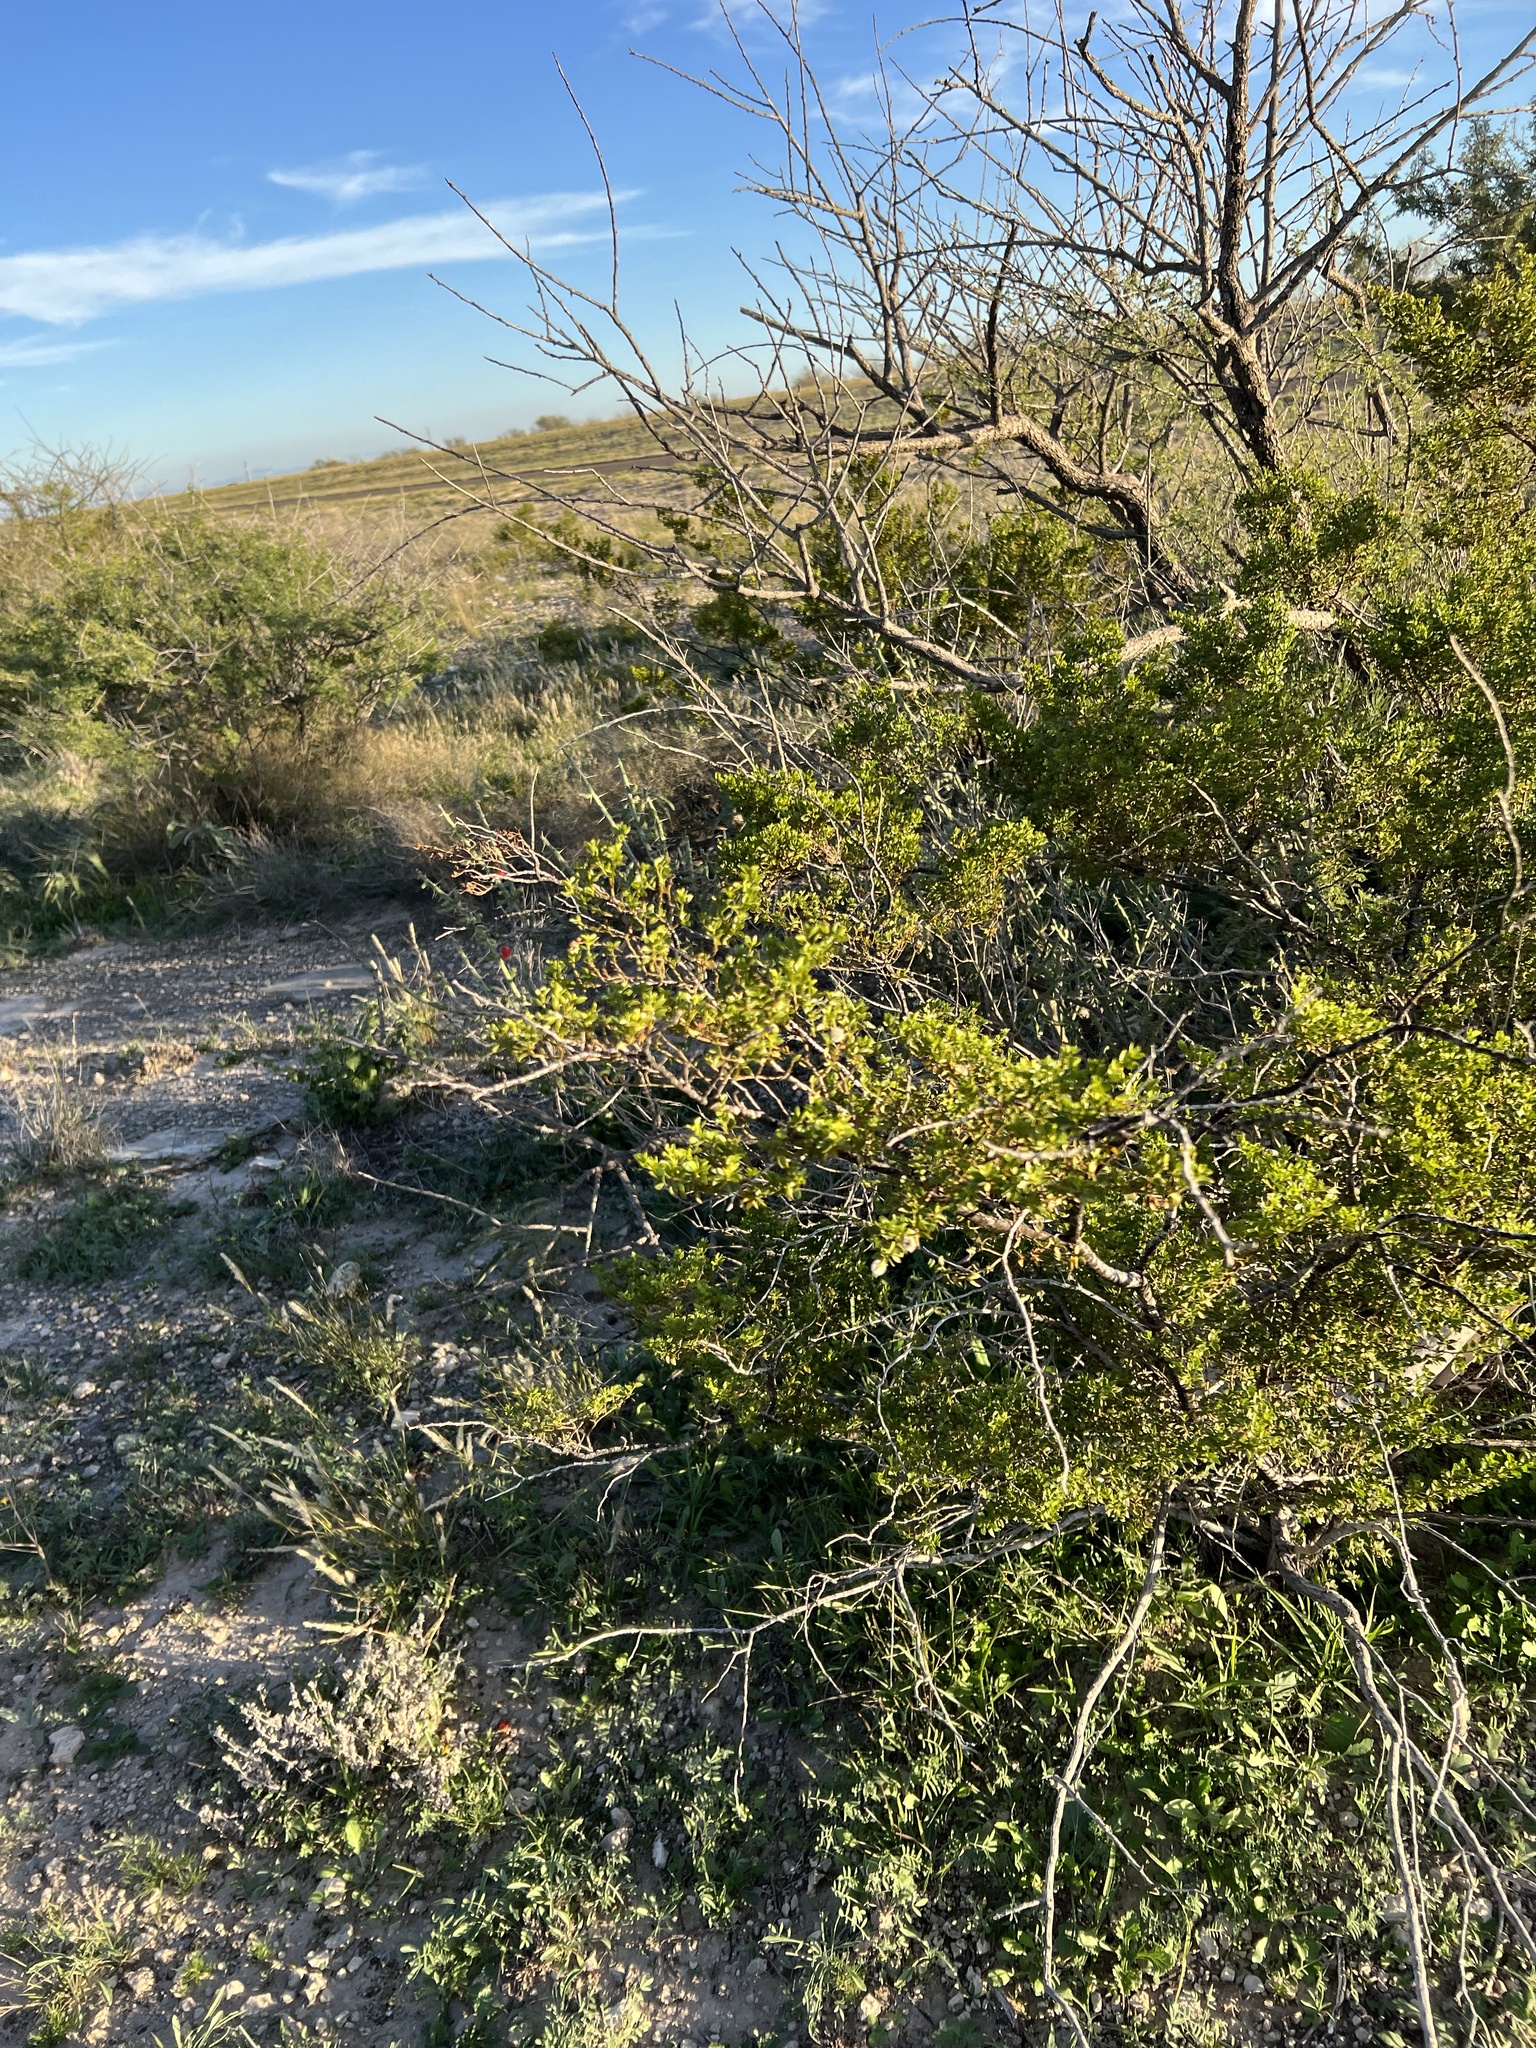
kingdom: Plantae
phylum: Tracheophyta
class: Magnoliopsida
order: Zygophyllales
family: Zygophyllaceae
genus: Larrea
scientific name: Larrea tridentata
